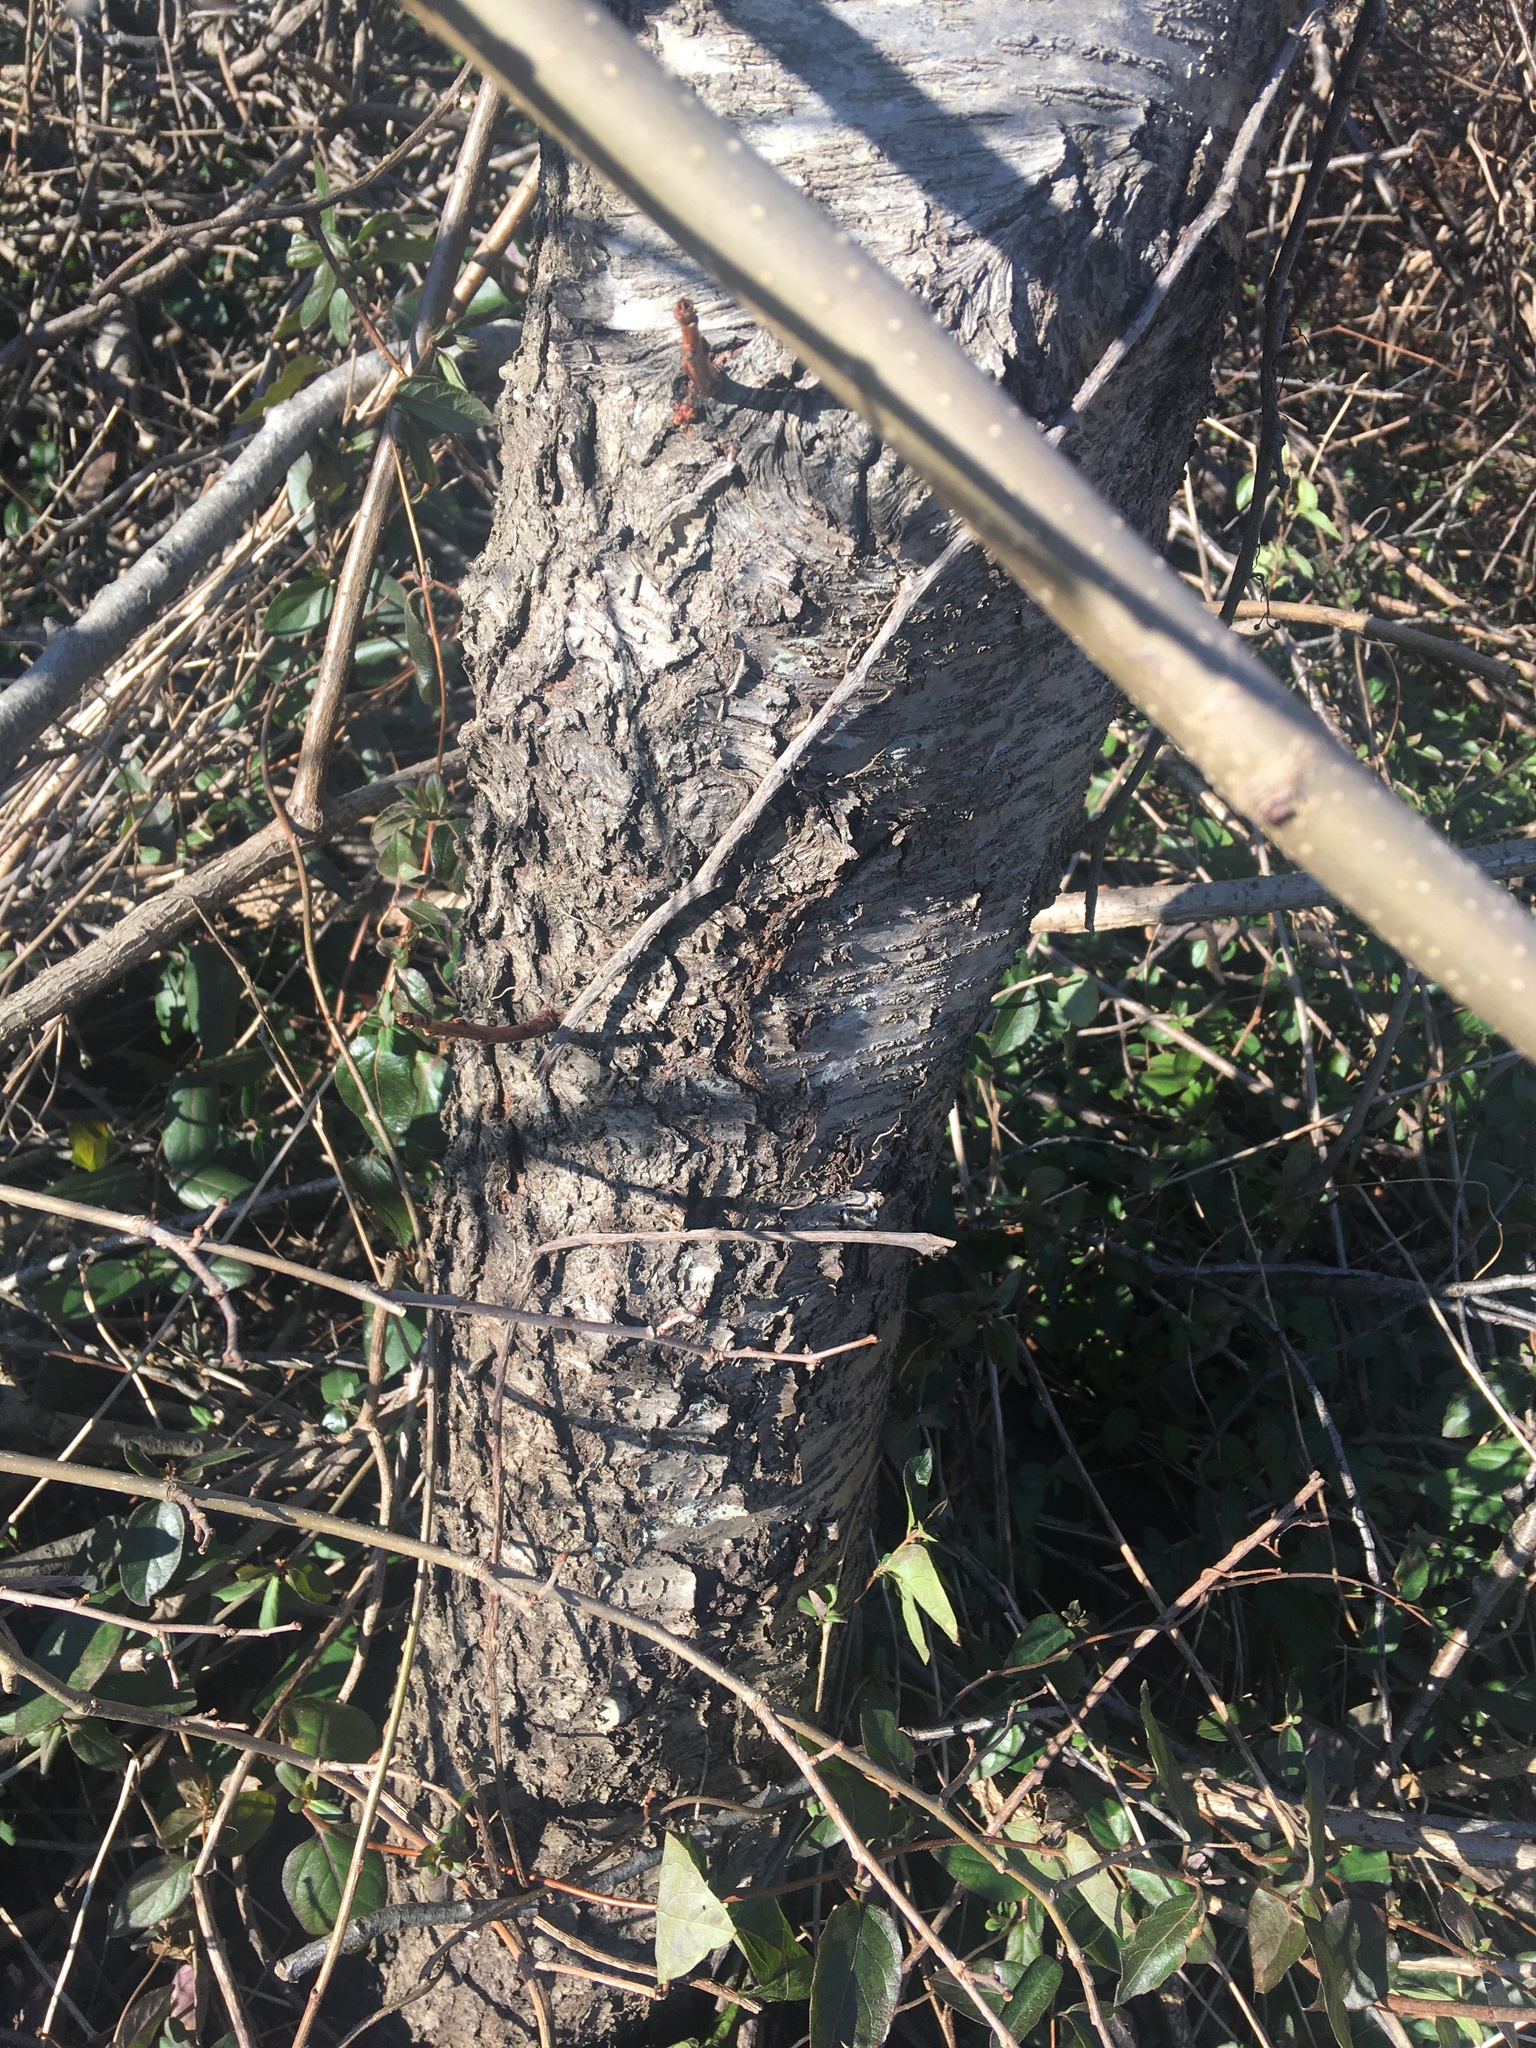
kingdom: Plantae
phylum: Tracheophyta
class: Magnoliopsida
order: Rosales
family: Rosaceae
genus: Prunus
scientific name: Prunus serotina
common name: Black cherry
